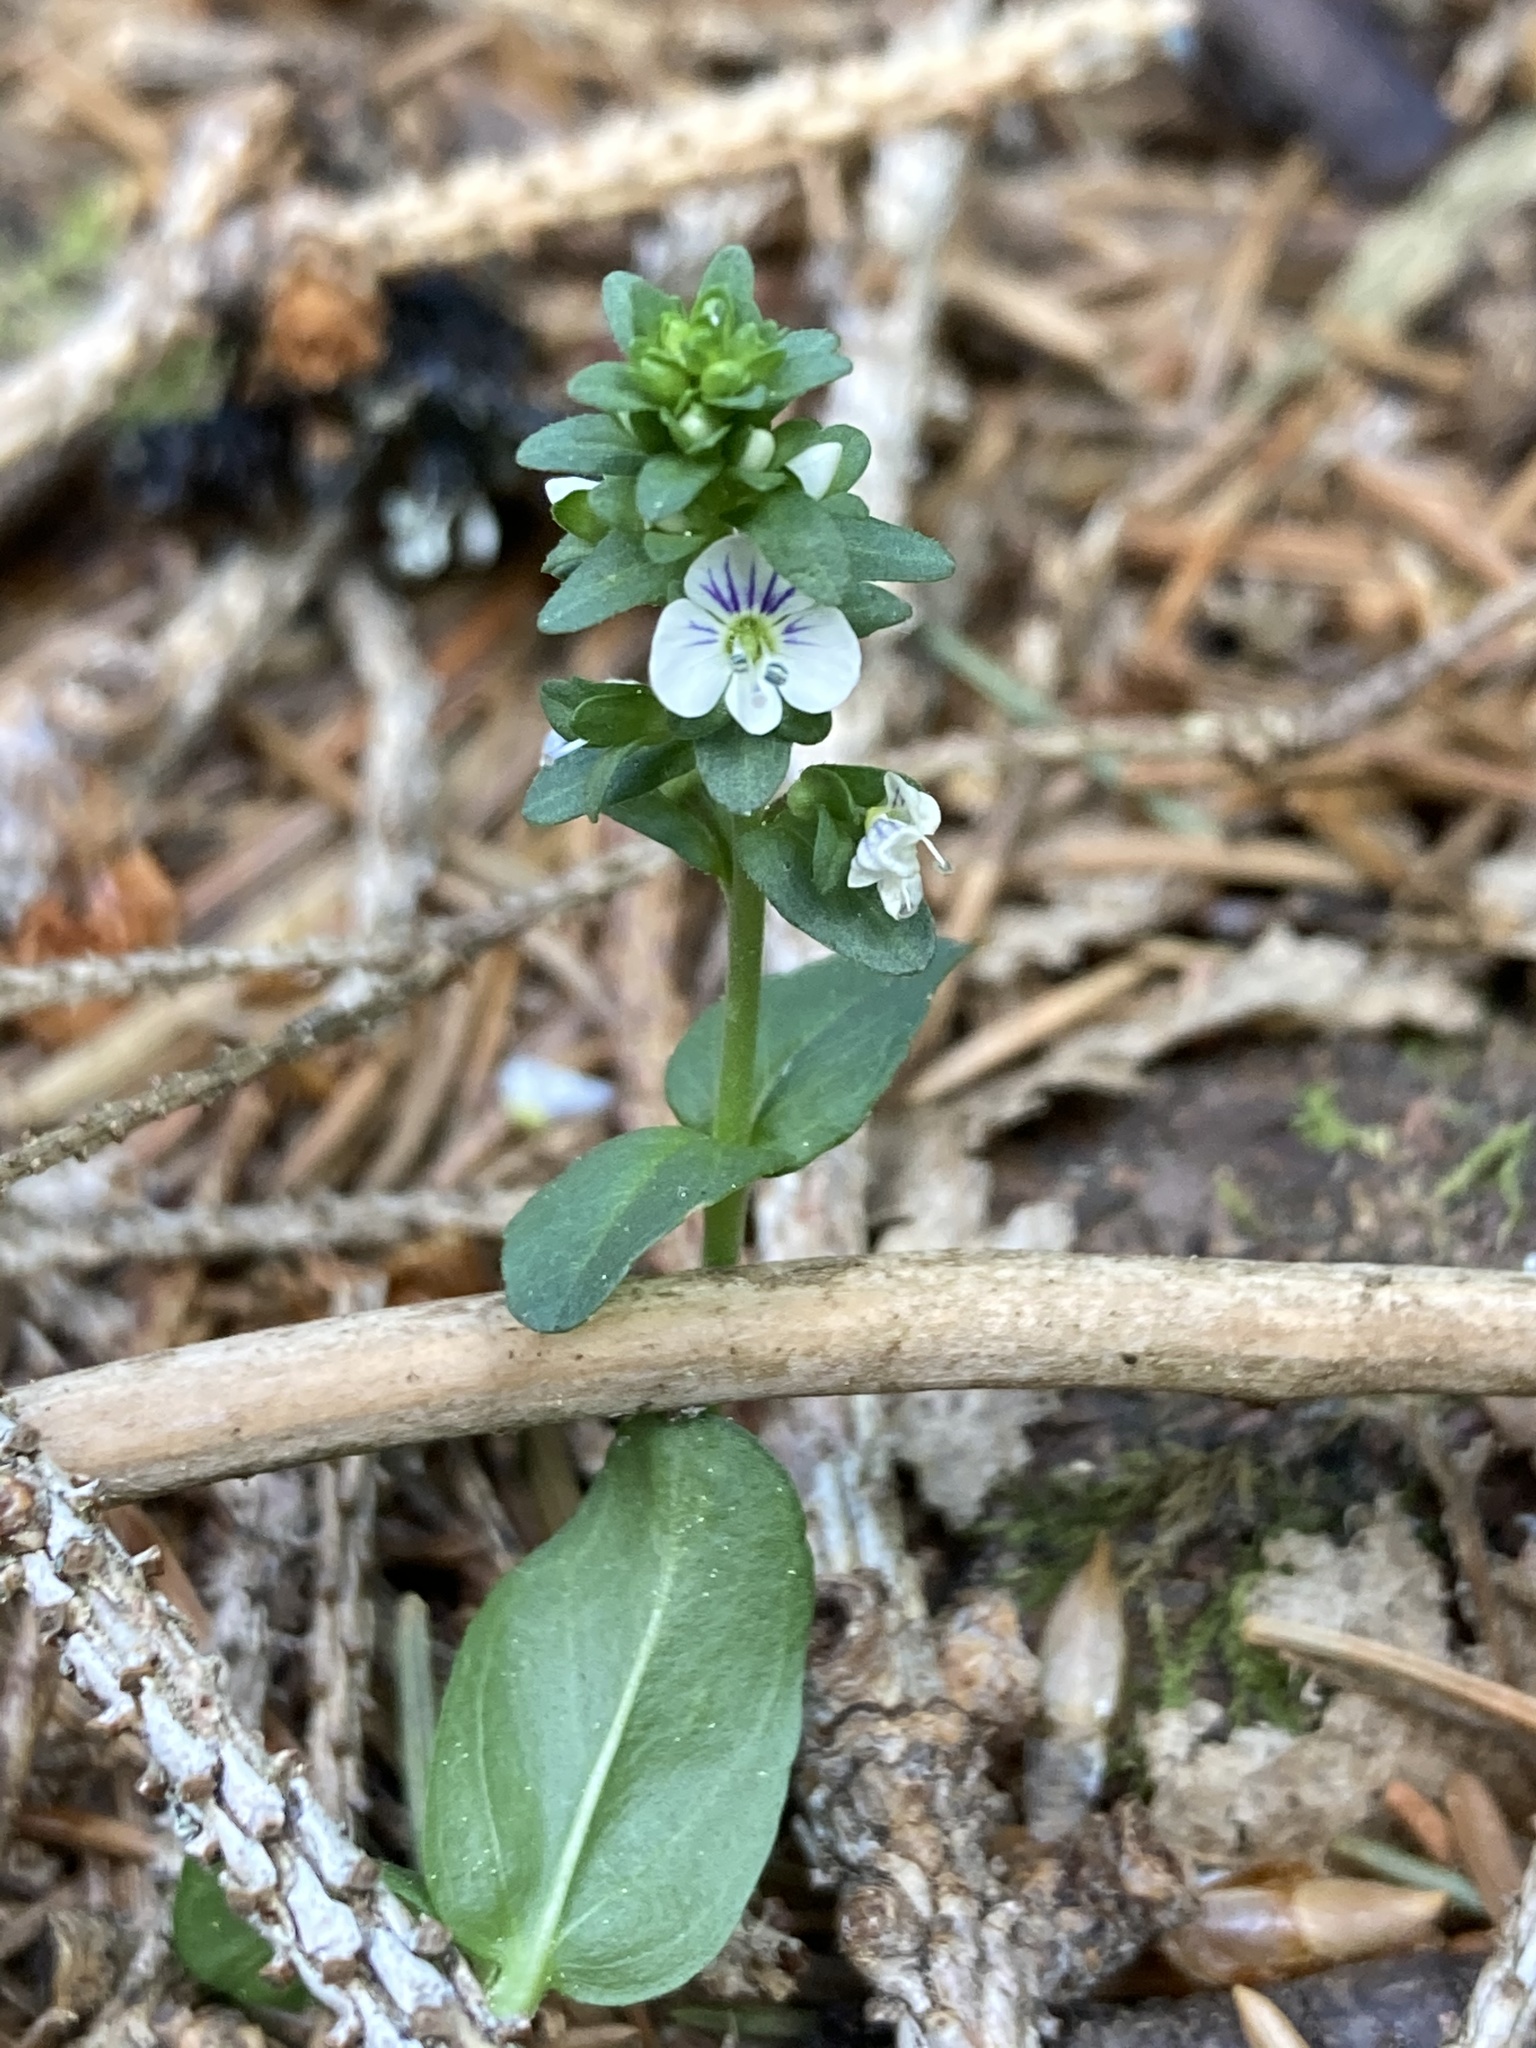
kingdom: Plantae
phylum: Tracheophyta
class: Magnoliopsida
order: Lamiales
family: Plantaginaceae
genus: Veronica
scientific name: Veronica serpyllifolia
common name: Thyme-leaved speedwell
